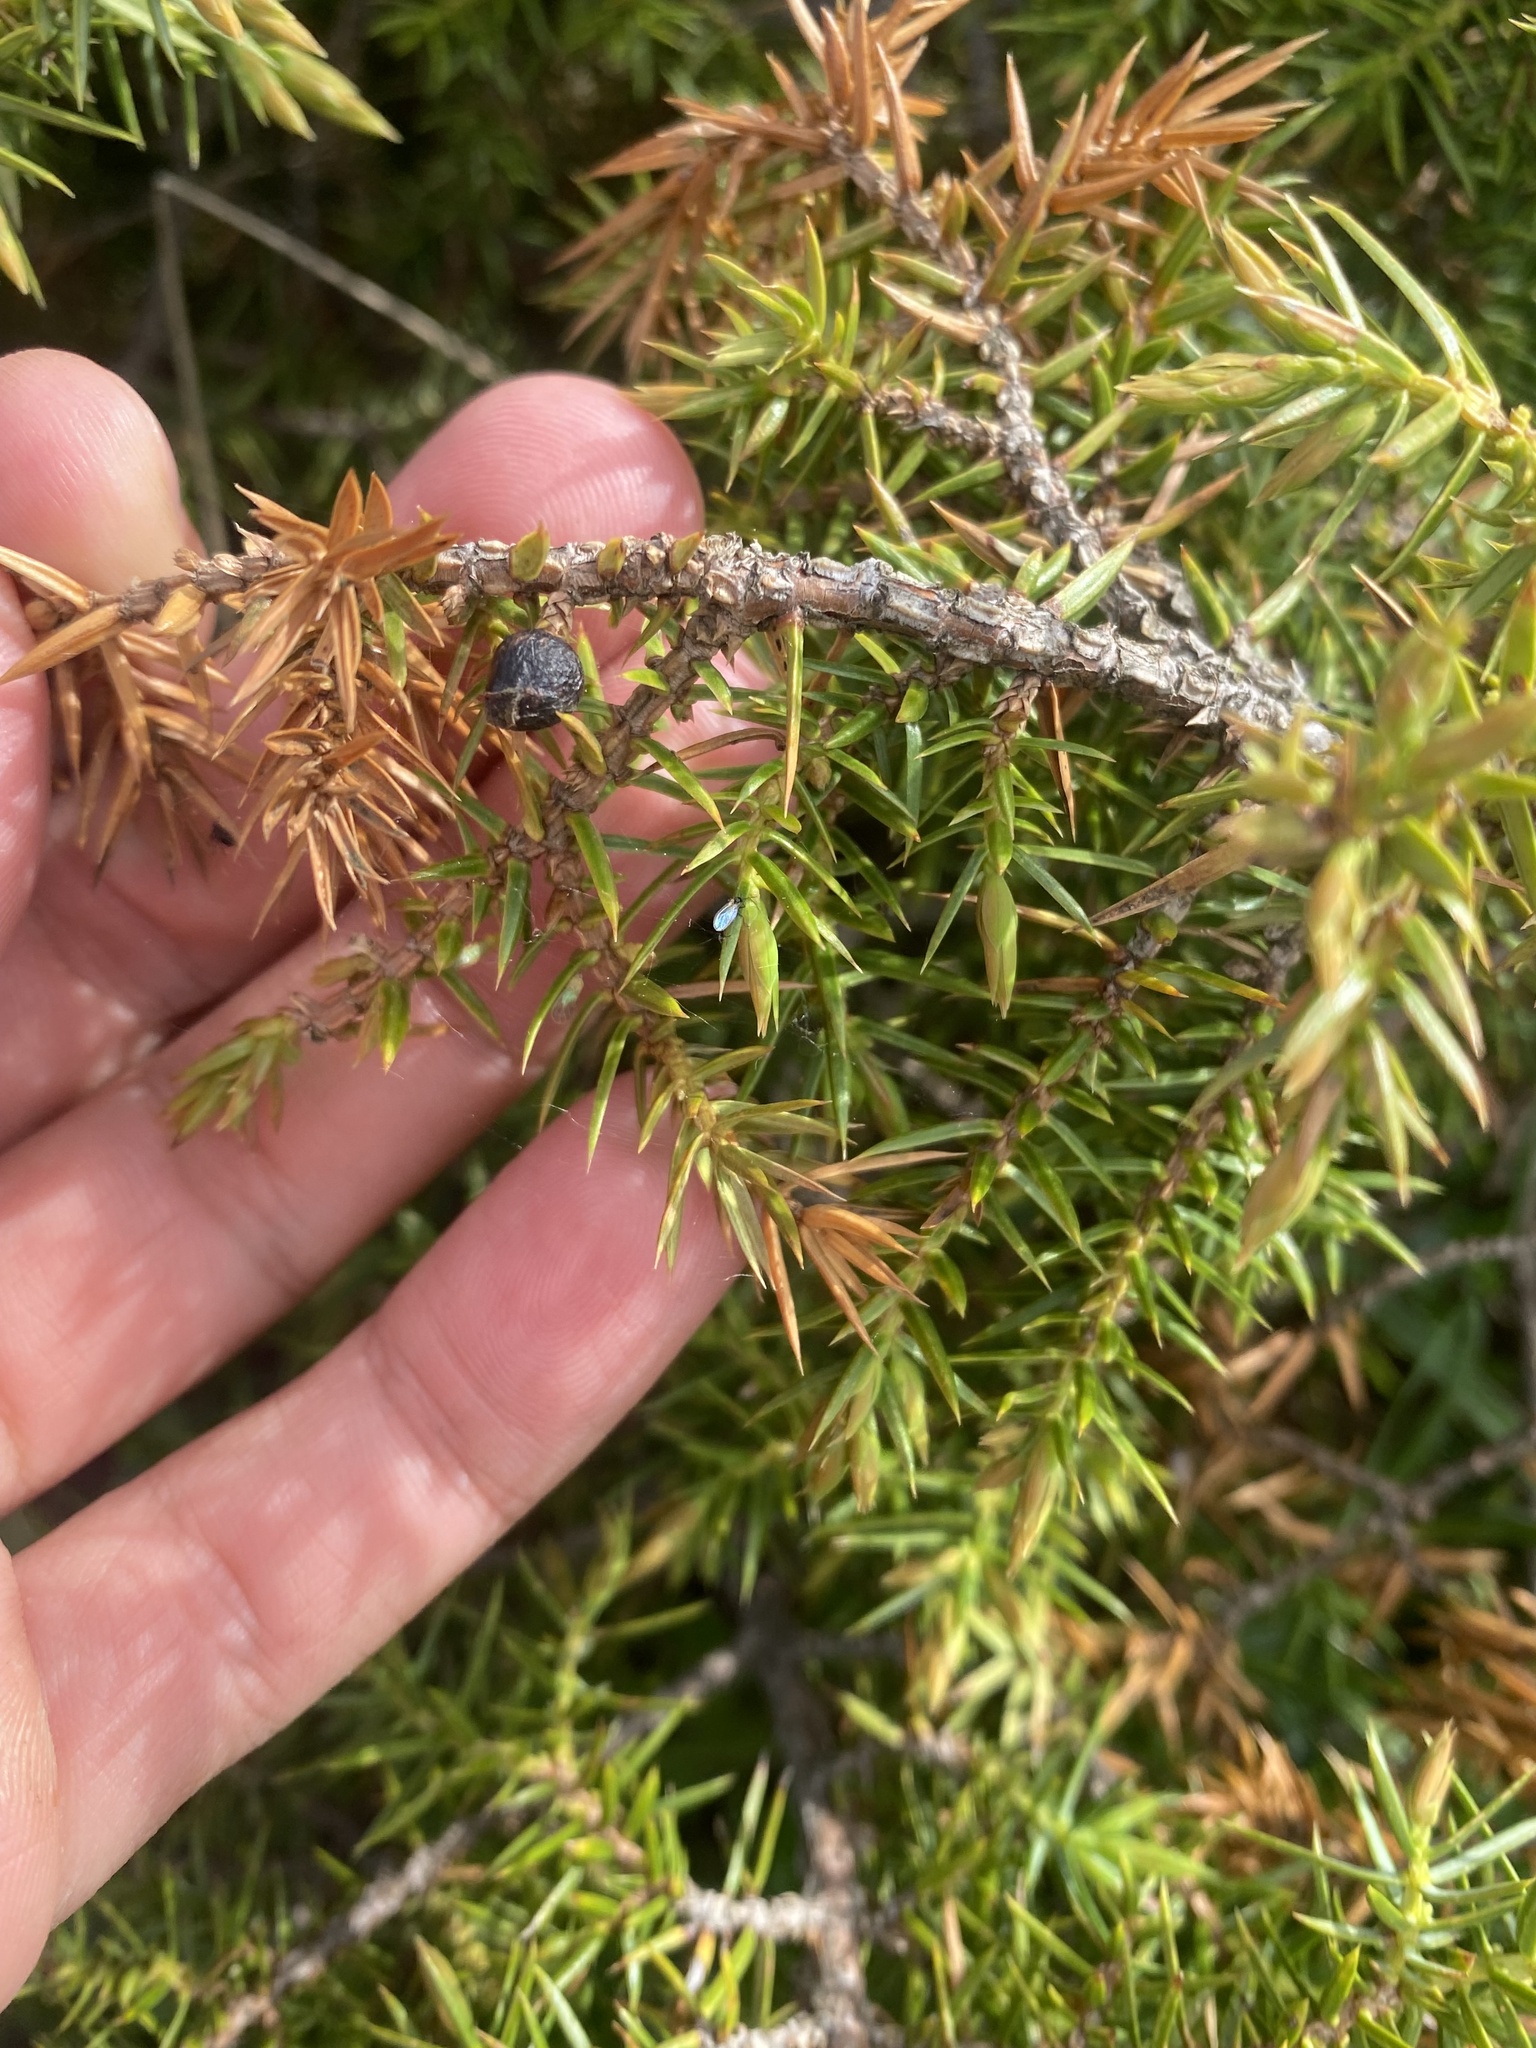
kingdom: Plantae
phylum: Tracheophyta
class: Pinopsida
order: Pinales
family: Cupressaceae
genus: Juniperus
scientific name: Juniperus communis
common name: Common juniper
